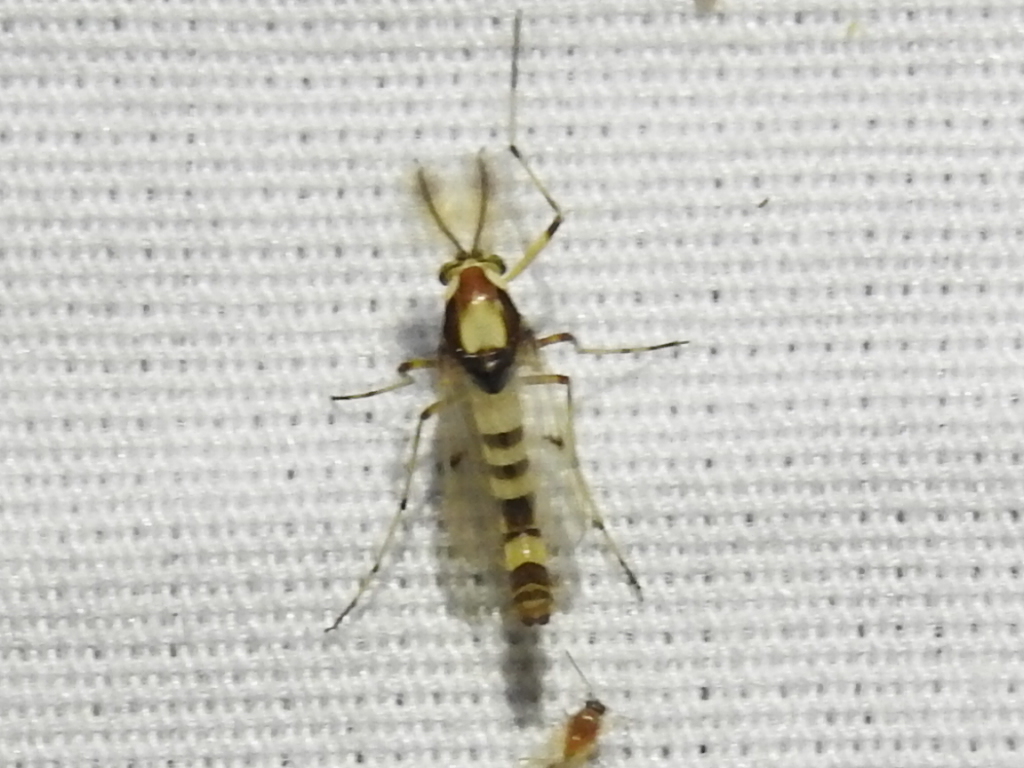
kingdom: Animalia
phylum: Arthropoda
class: Insecta
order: Diptera
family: Chironomidae
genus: Coelotanypus
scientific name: Coelotanypus tricolor
